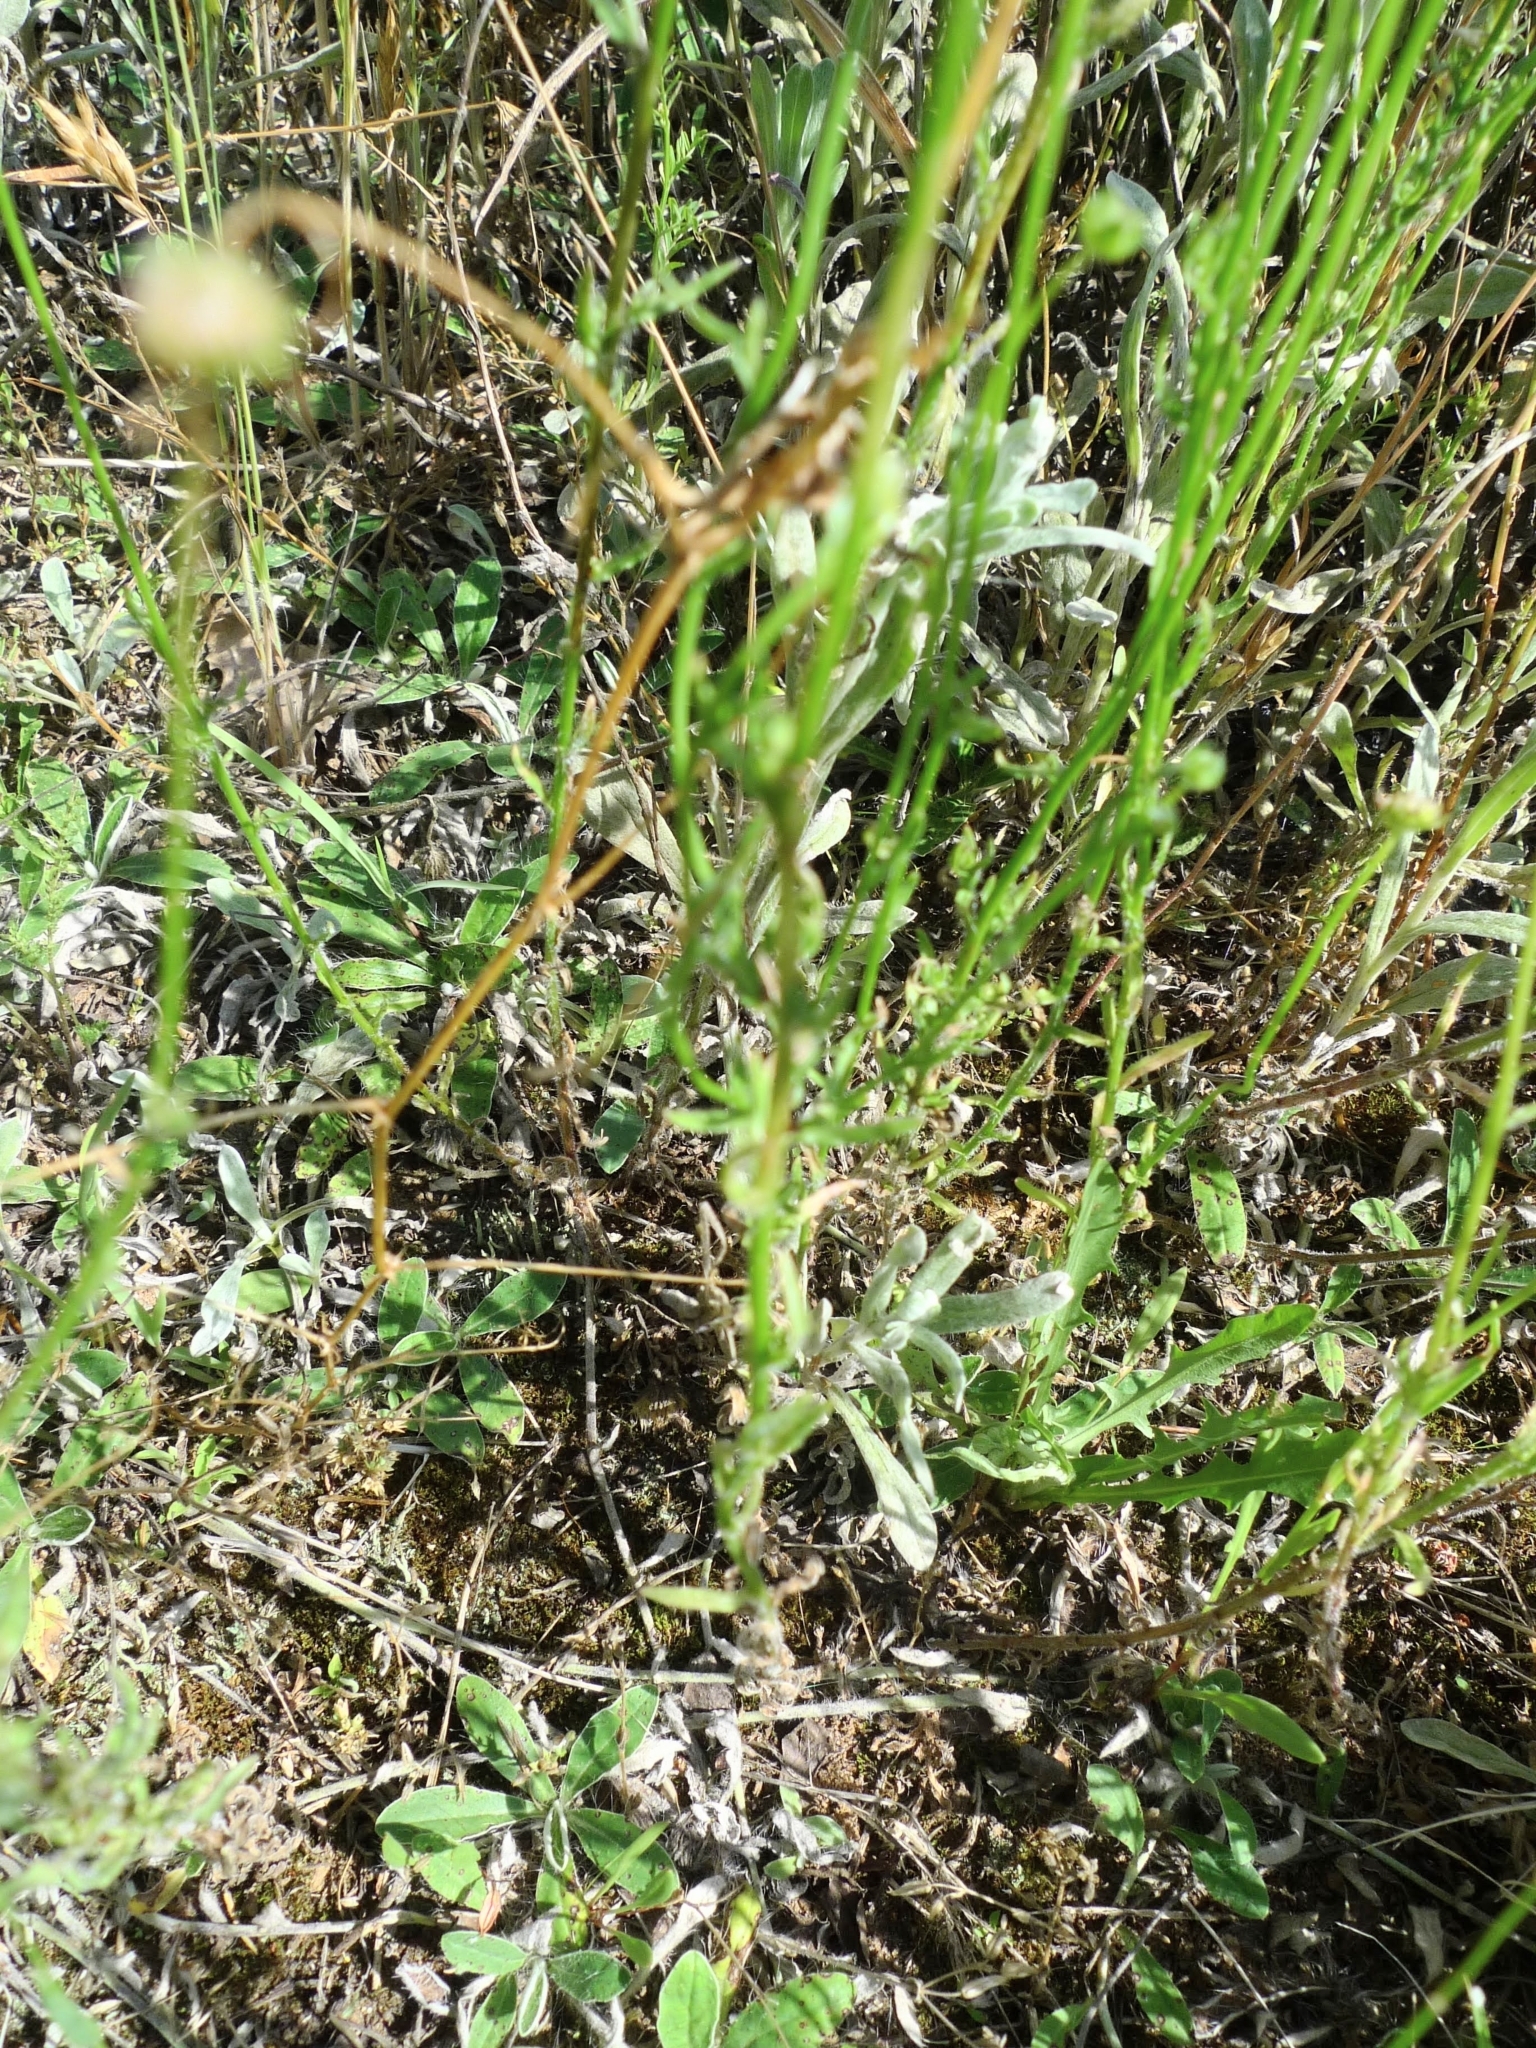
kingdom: Plantae
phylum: Tracheophyta
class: Magnoliopsida
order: Asterales
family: Campanulaceae
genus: Jasione
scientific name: Jasione montana
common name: Sheep's-bit
